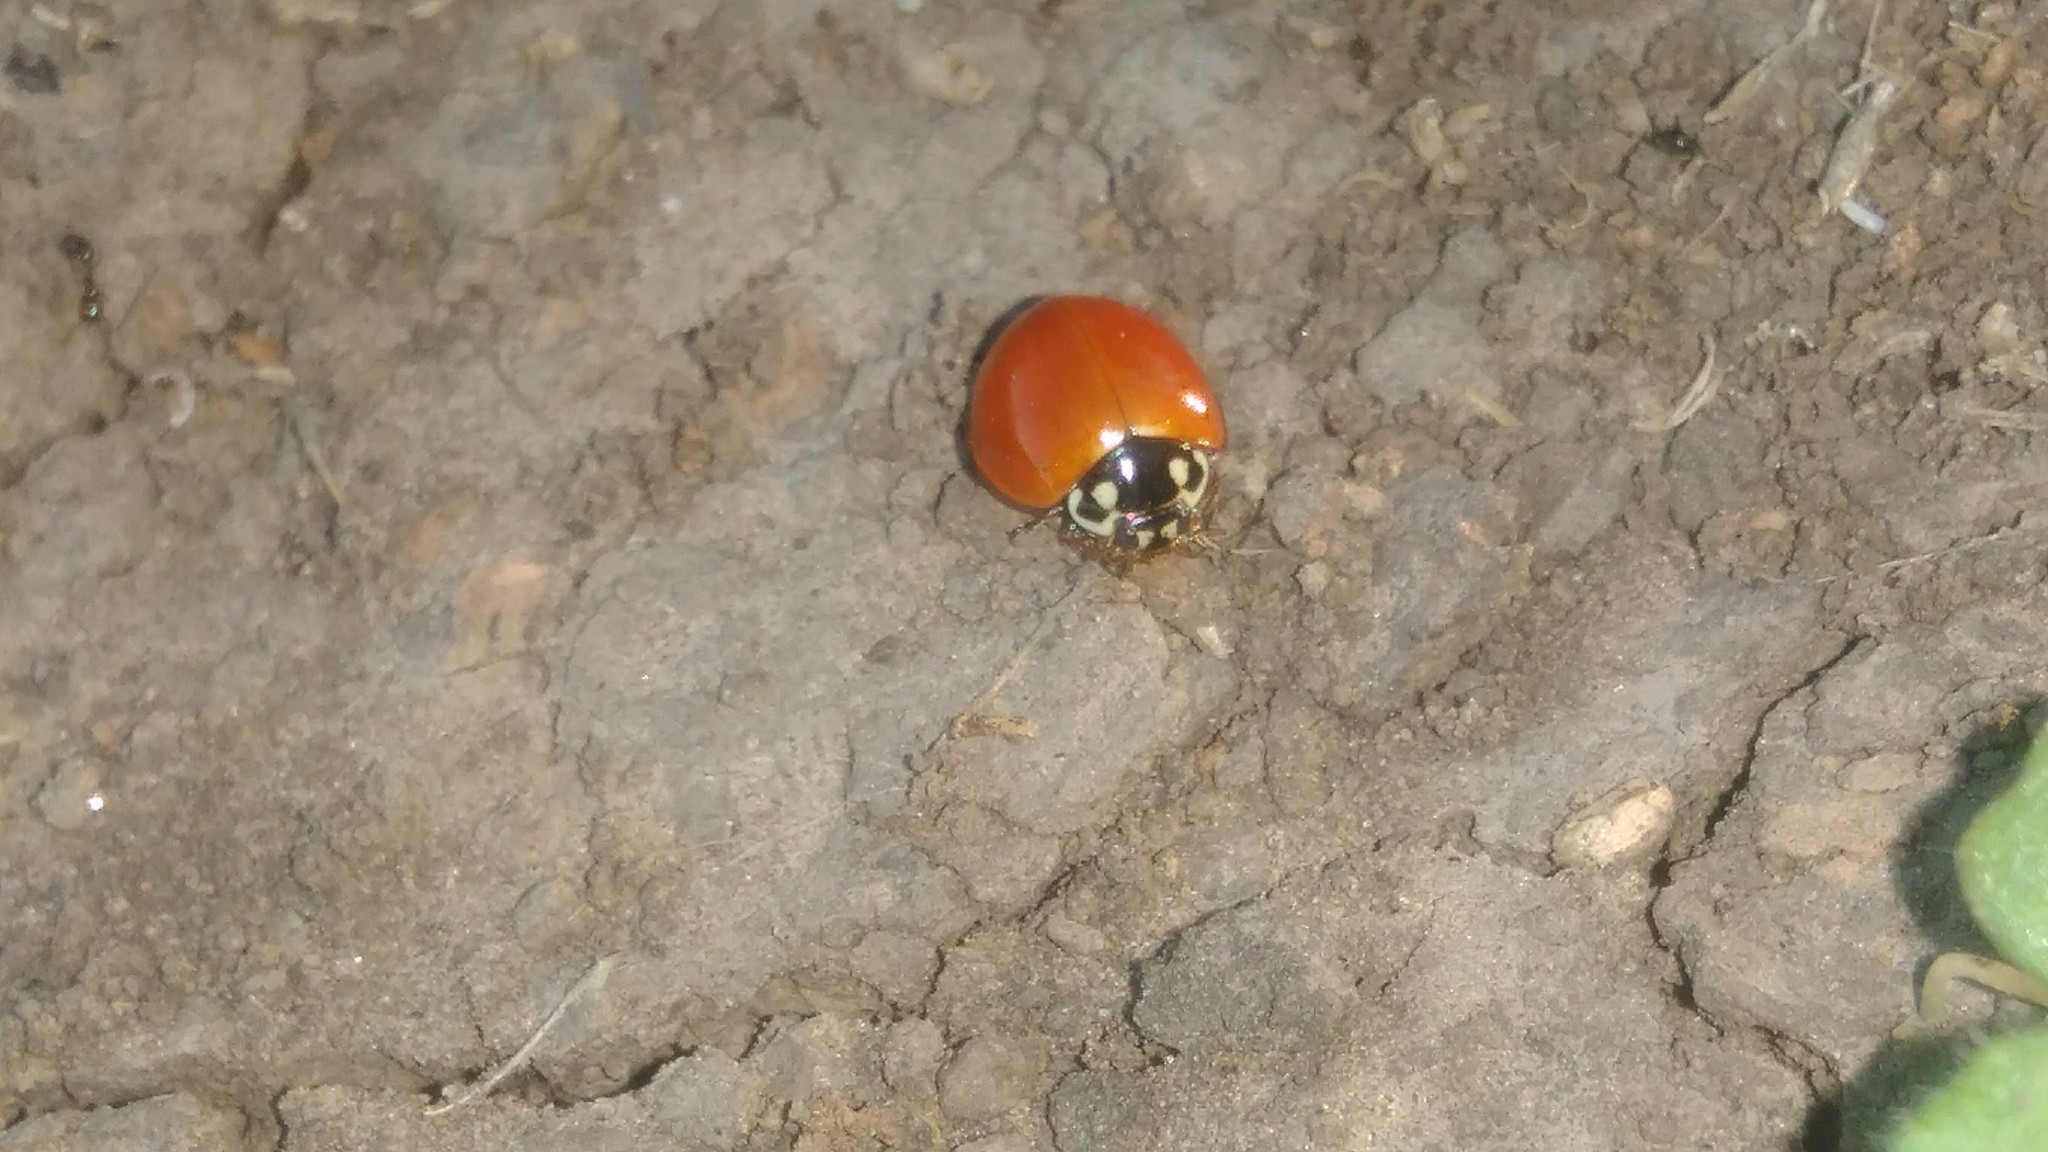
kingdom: Animalia
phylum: Arthropoda
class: Insecta
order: Coleoptera
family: Coccinellidae
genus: Cycloneda
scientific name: Cycloneda sanguinea
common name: Ladybird beetle
